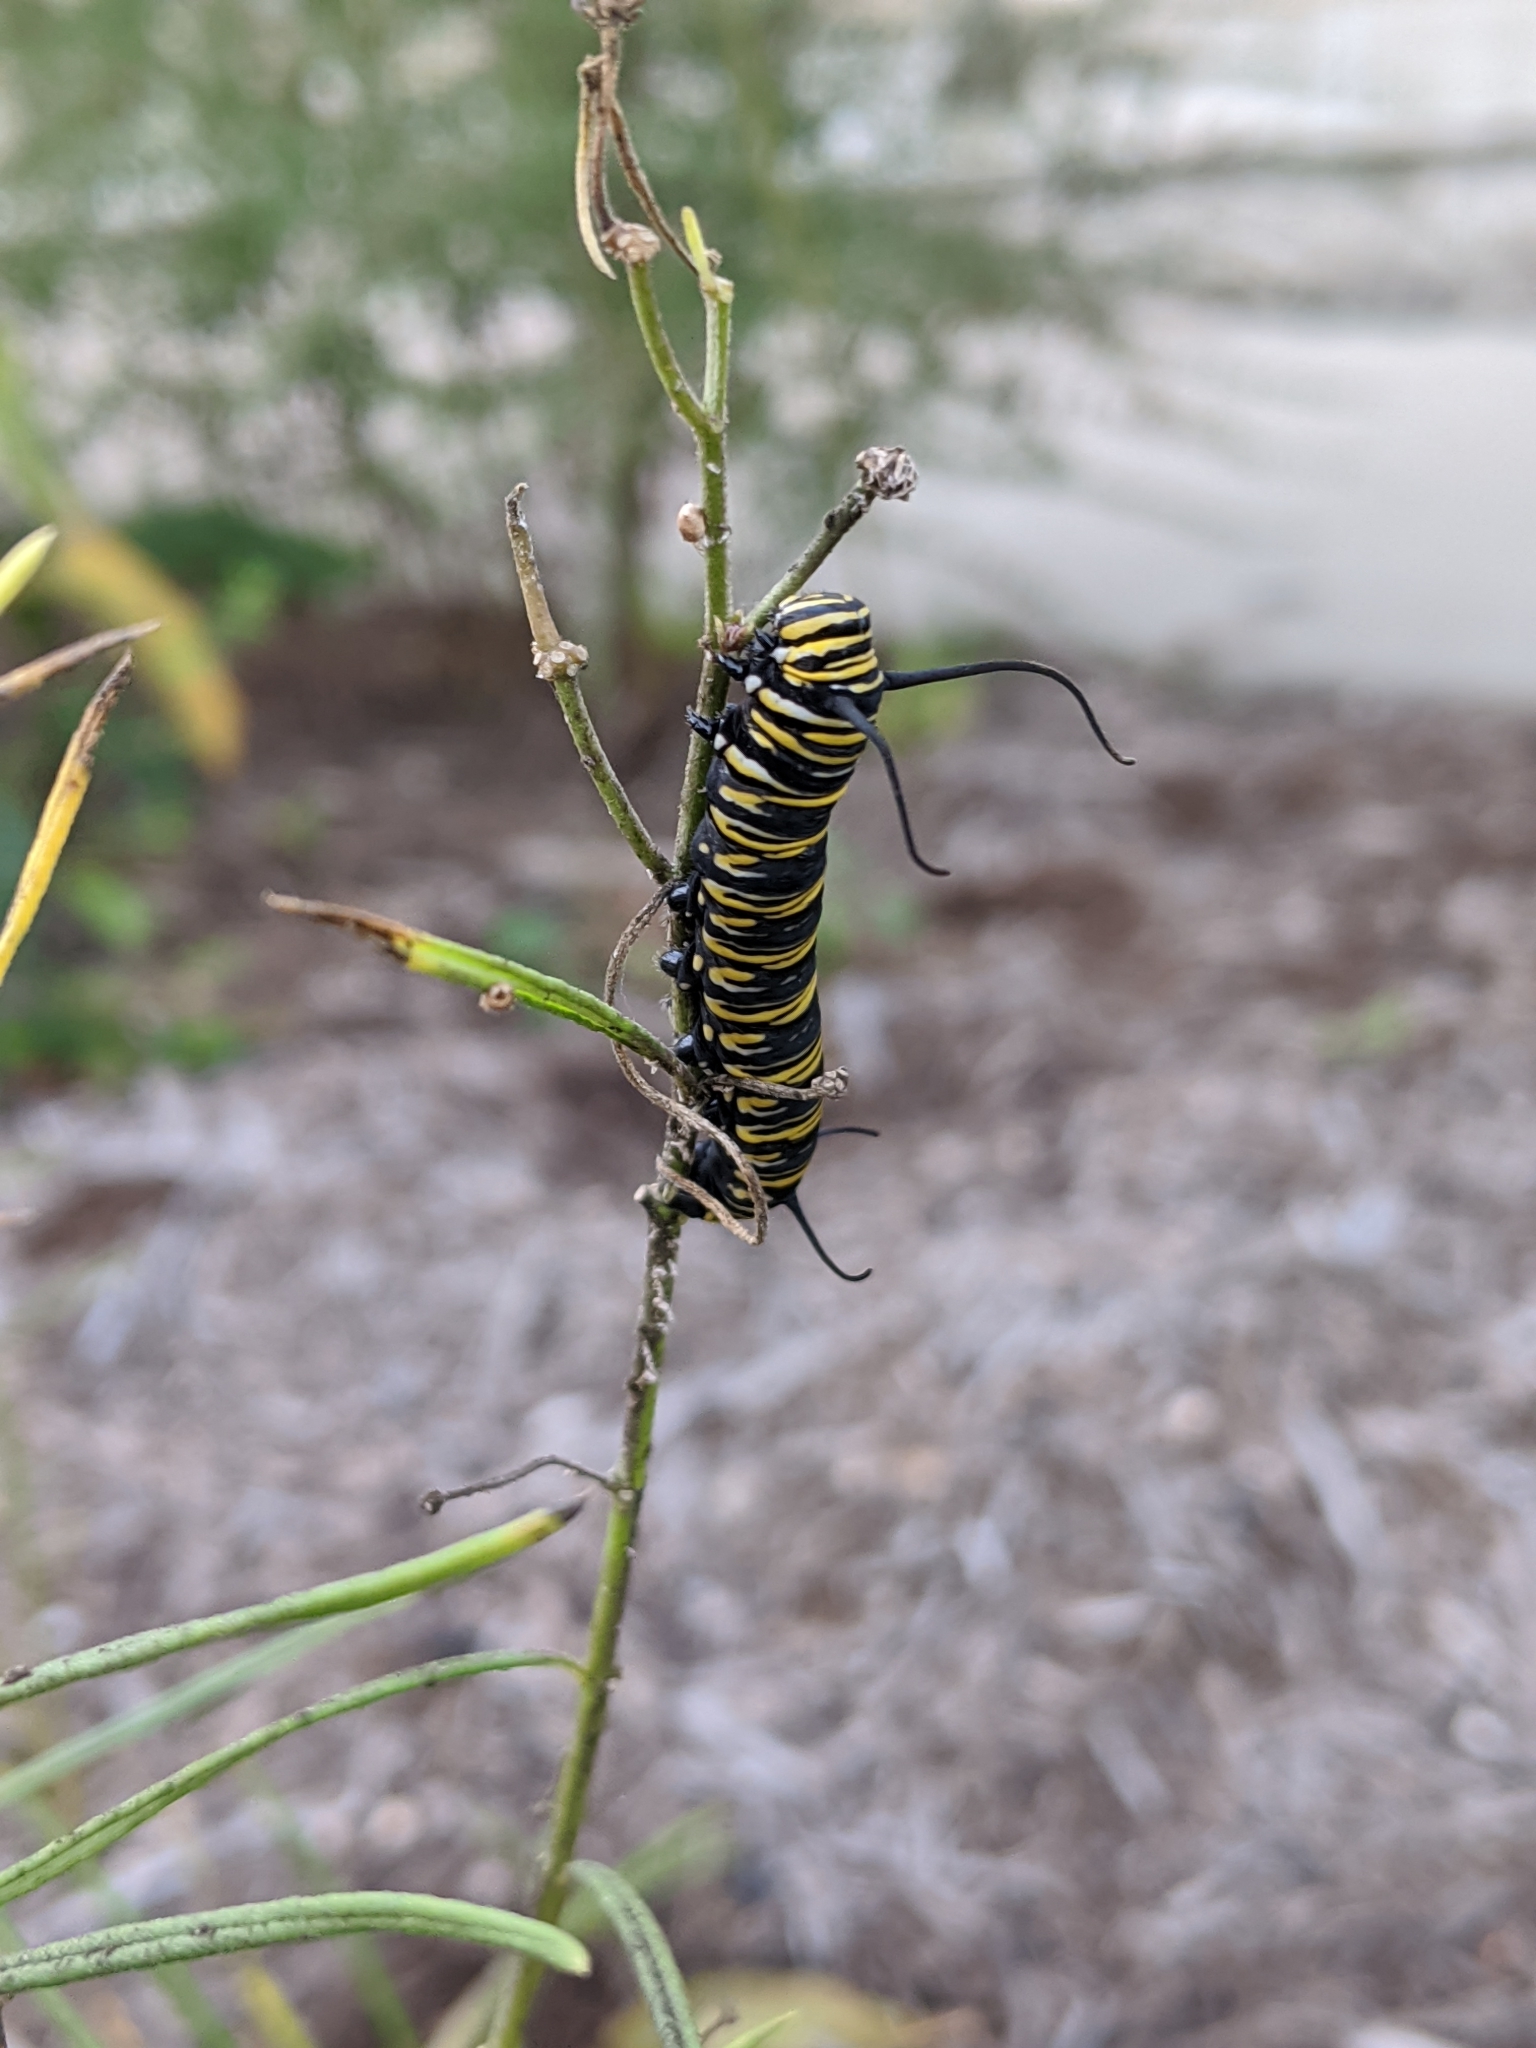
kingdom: Animalia
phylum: Arthropoda
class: Insecta
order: Lepidoptera
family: Nymphalidae
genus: Danaus
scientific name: Danaus plexippus
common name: Monarch
